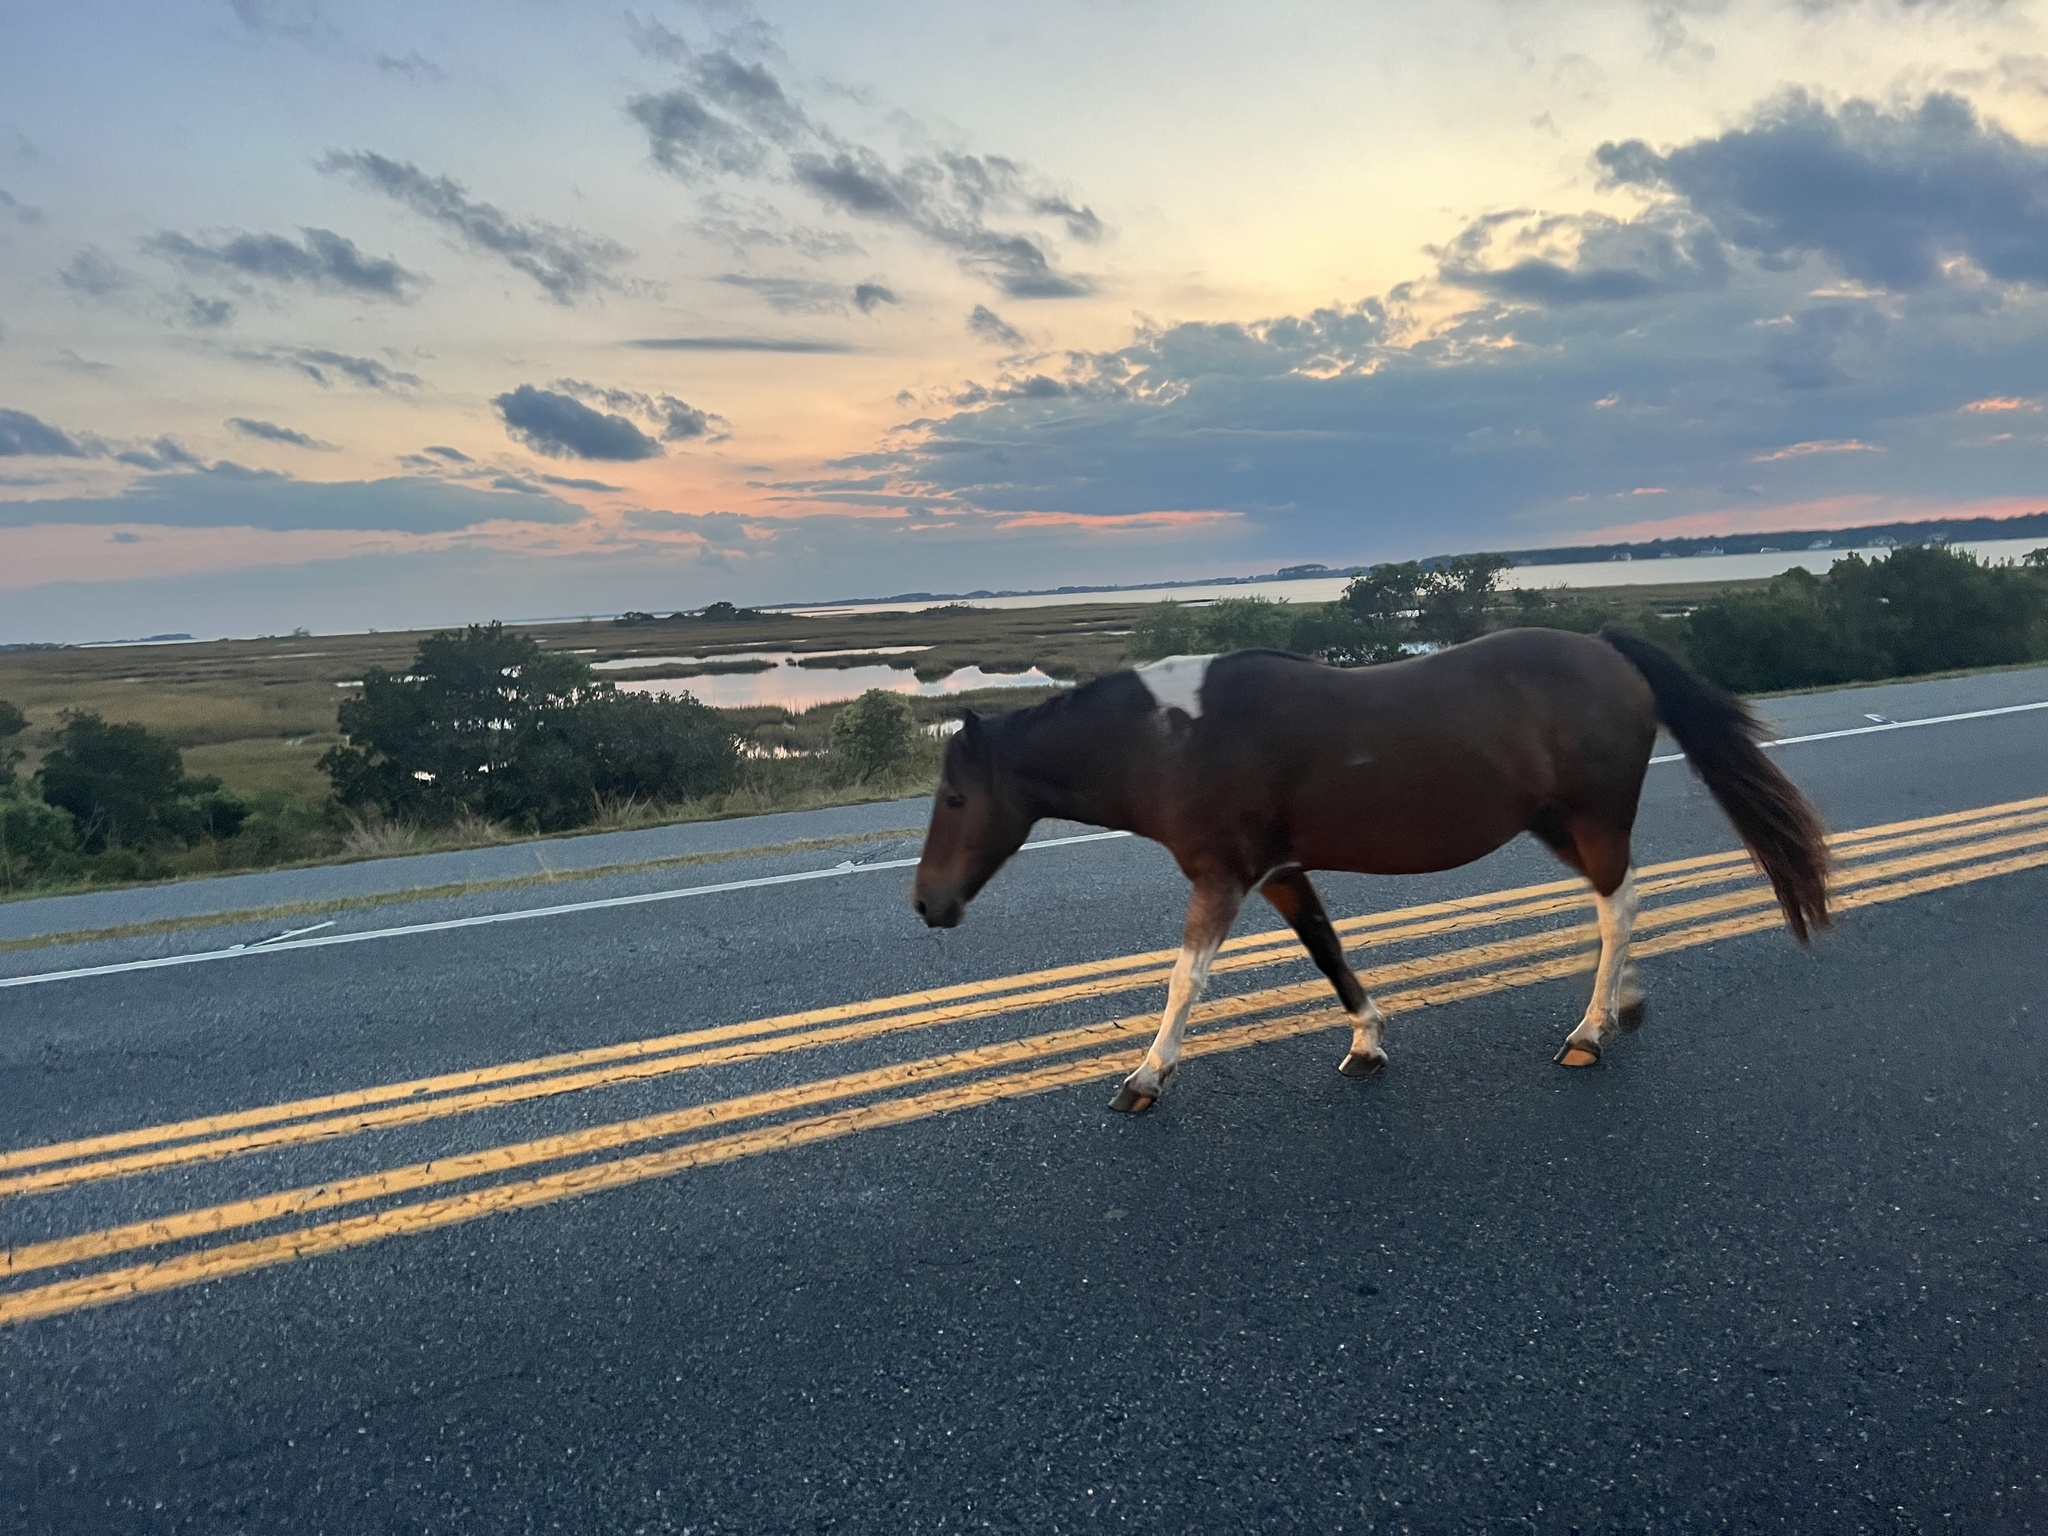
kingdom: Animalia
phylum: Chordata
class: Mammalia
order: Perissodactyla
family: Equidae
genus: Equus
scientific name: Equus caballus
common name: Horse
